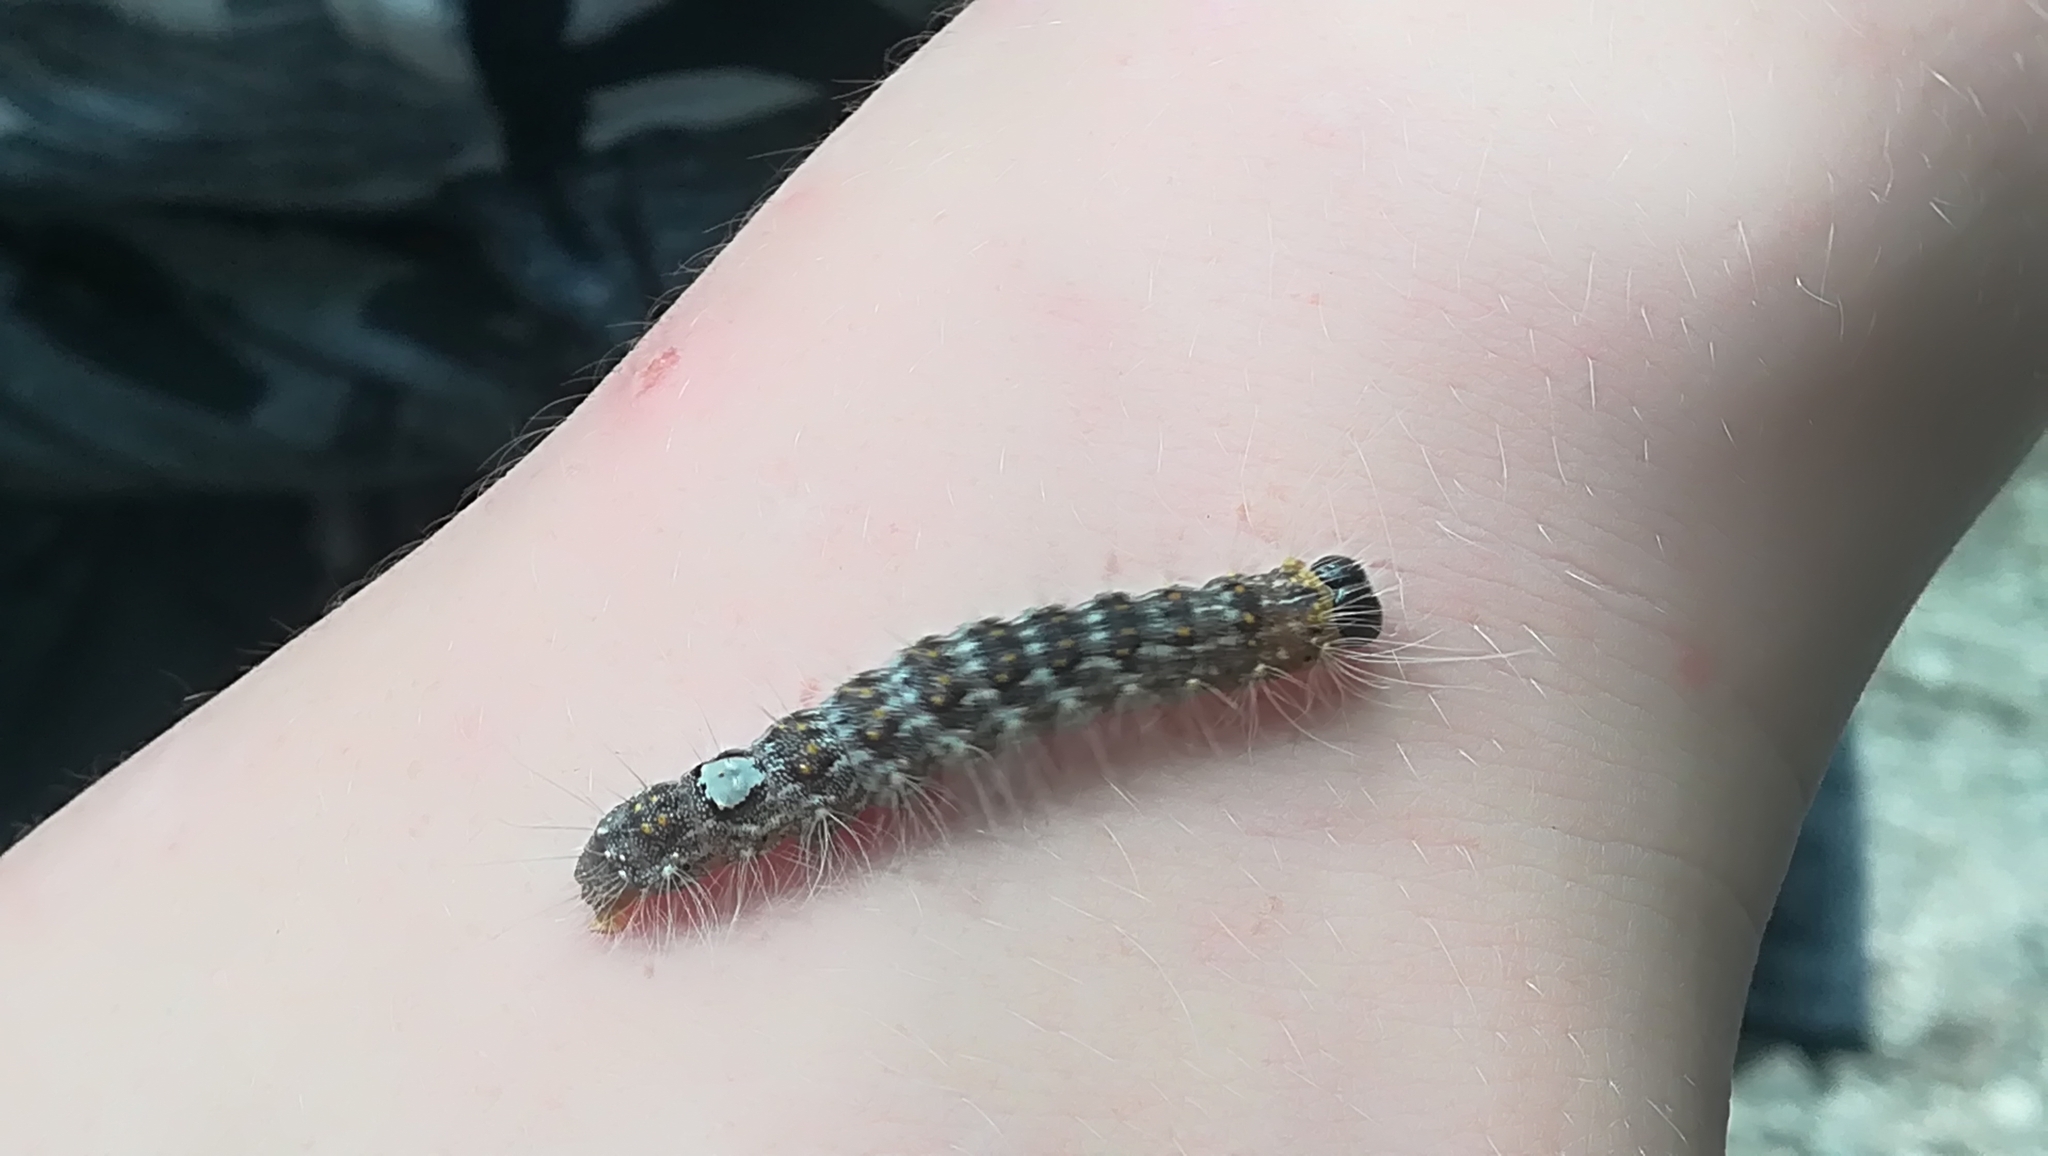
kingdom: Animalia
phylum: Arthropoda
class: Insecta
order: Lepidoptera
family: Noctuidae
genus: Acronicta
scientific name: Acronicta megacephala
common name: Poplar grey
